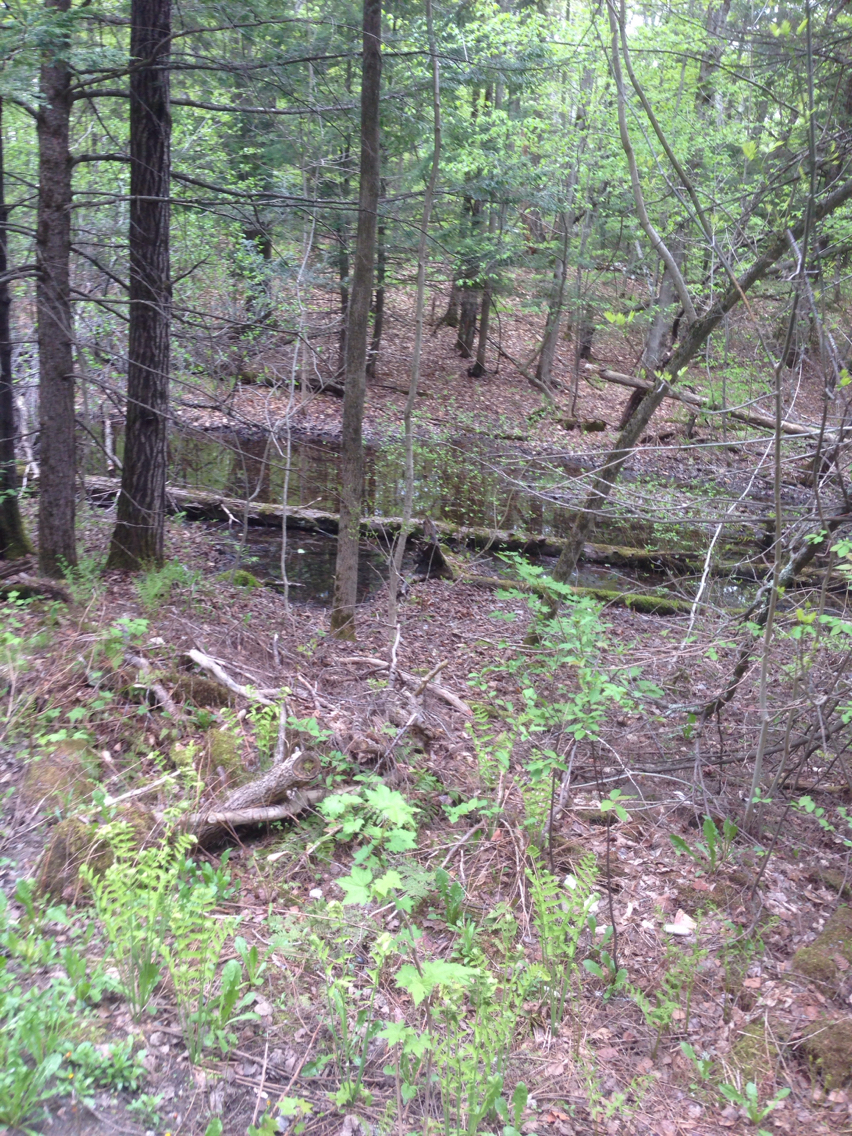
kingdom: Plantae
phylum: Tracheophyta
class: Polypodiopsida
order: Osmundales
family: Osmundaceae
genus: Claytosmunda
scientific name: Claytosmunda claytoniana
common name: Clayton's fern
